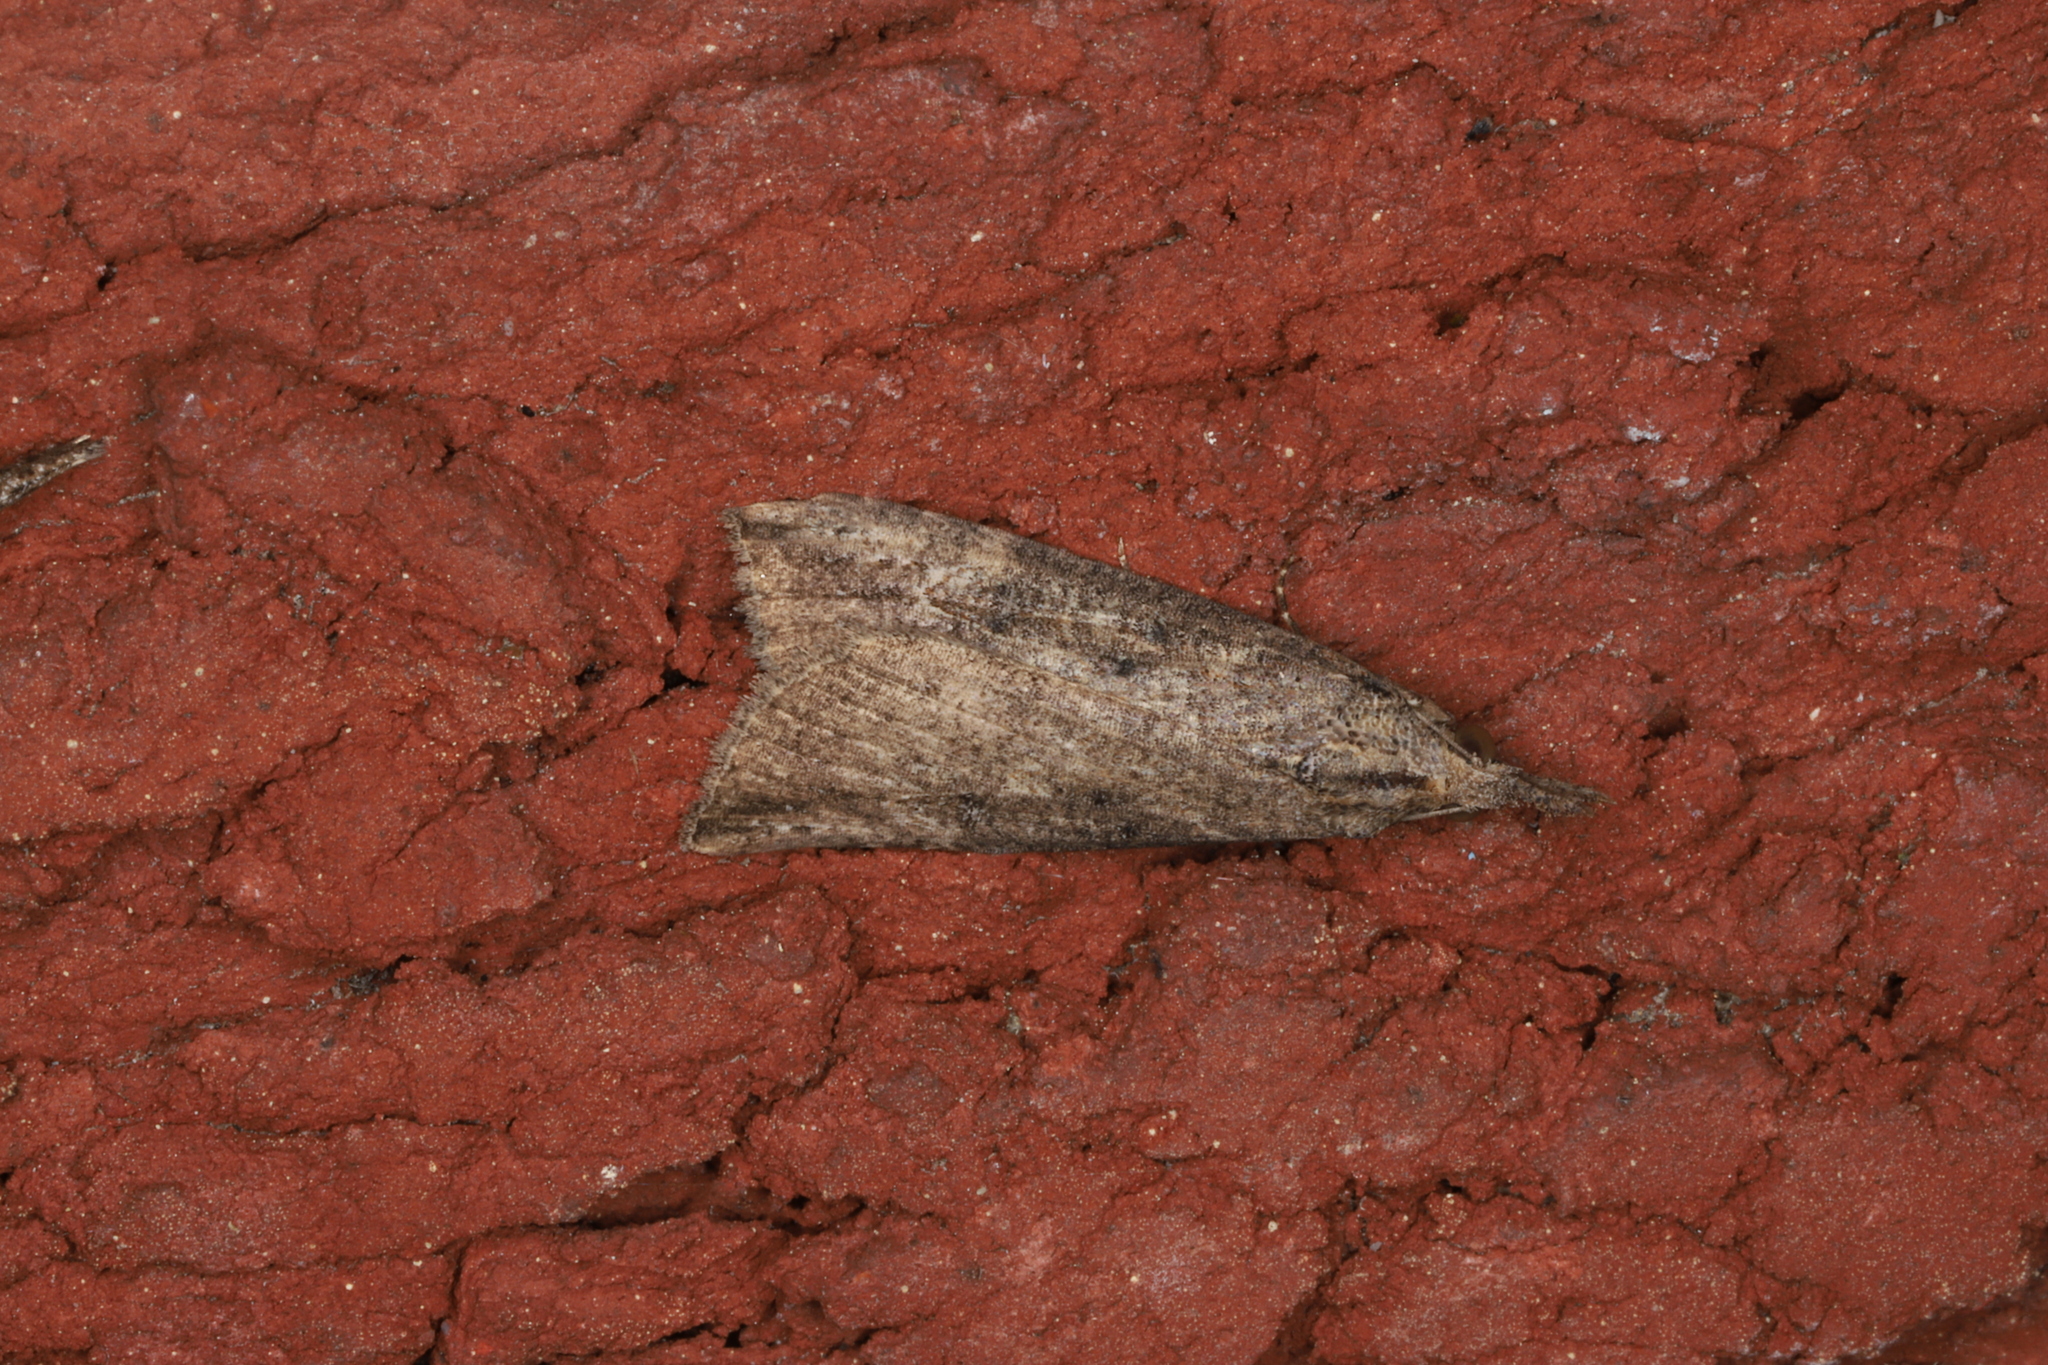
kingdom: Animalia
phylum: Arthropoda
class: Insecta
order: Lepidoptera
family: Erebidae
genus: Hypena
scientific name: Hypena humuli
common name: Hop vine snout
